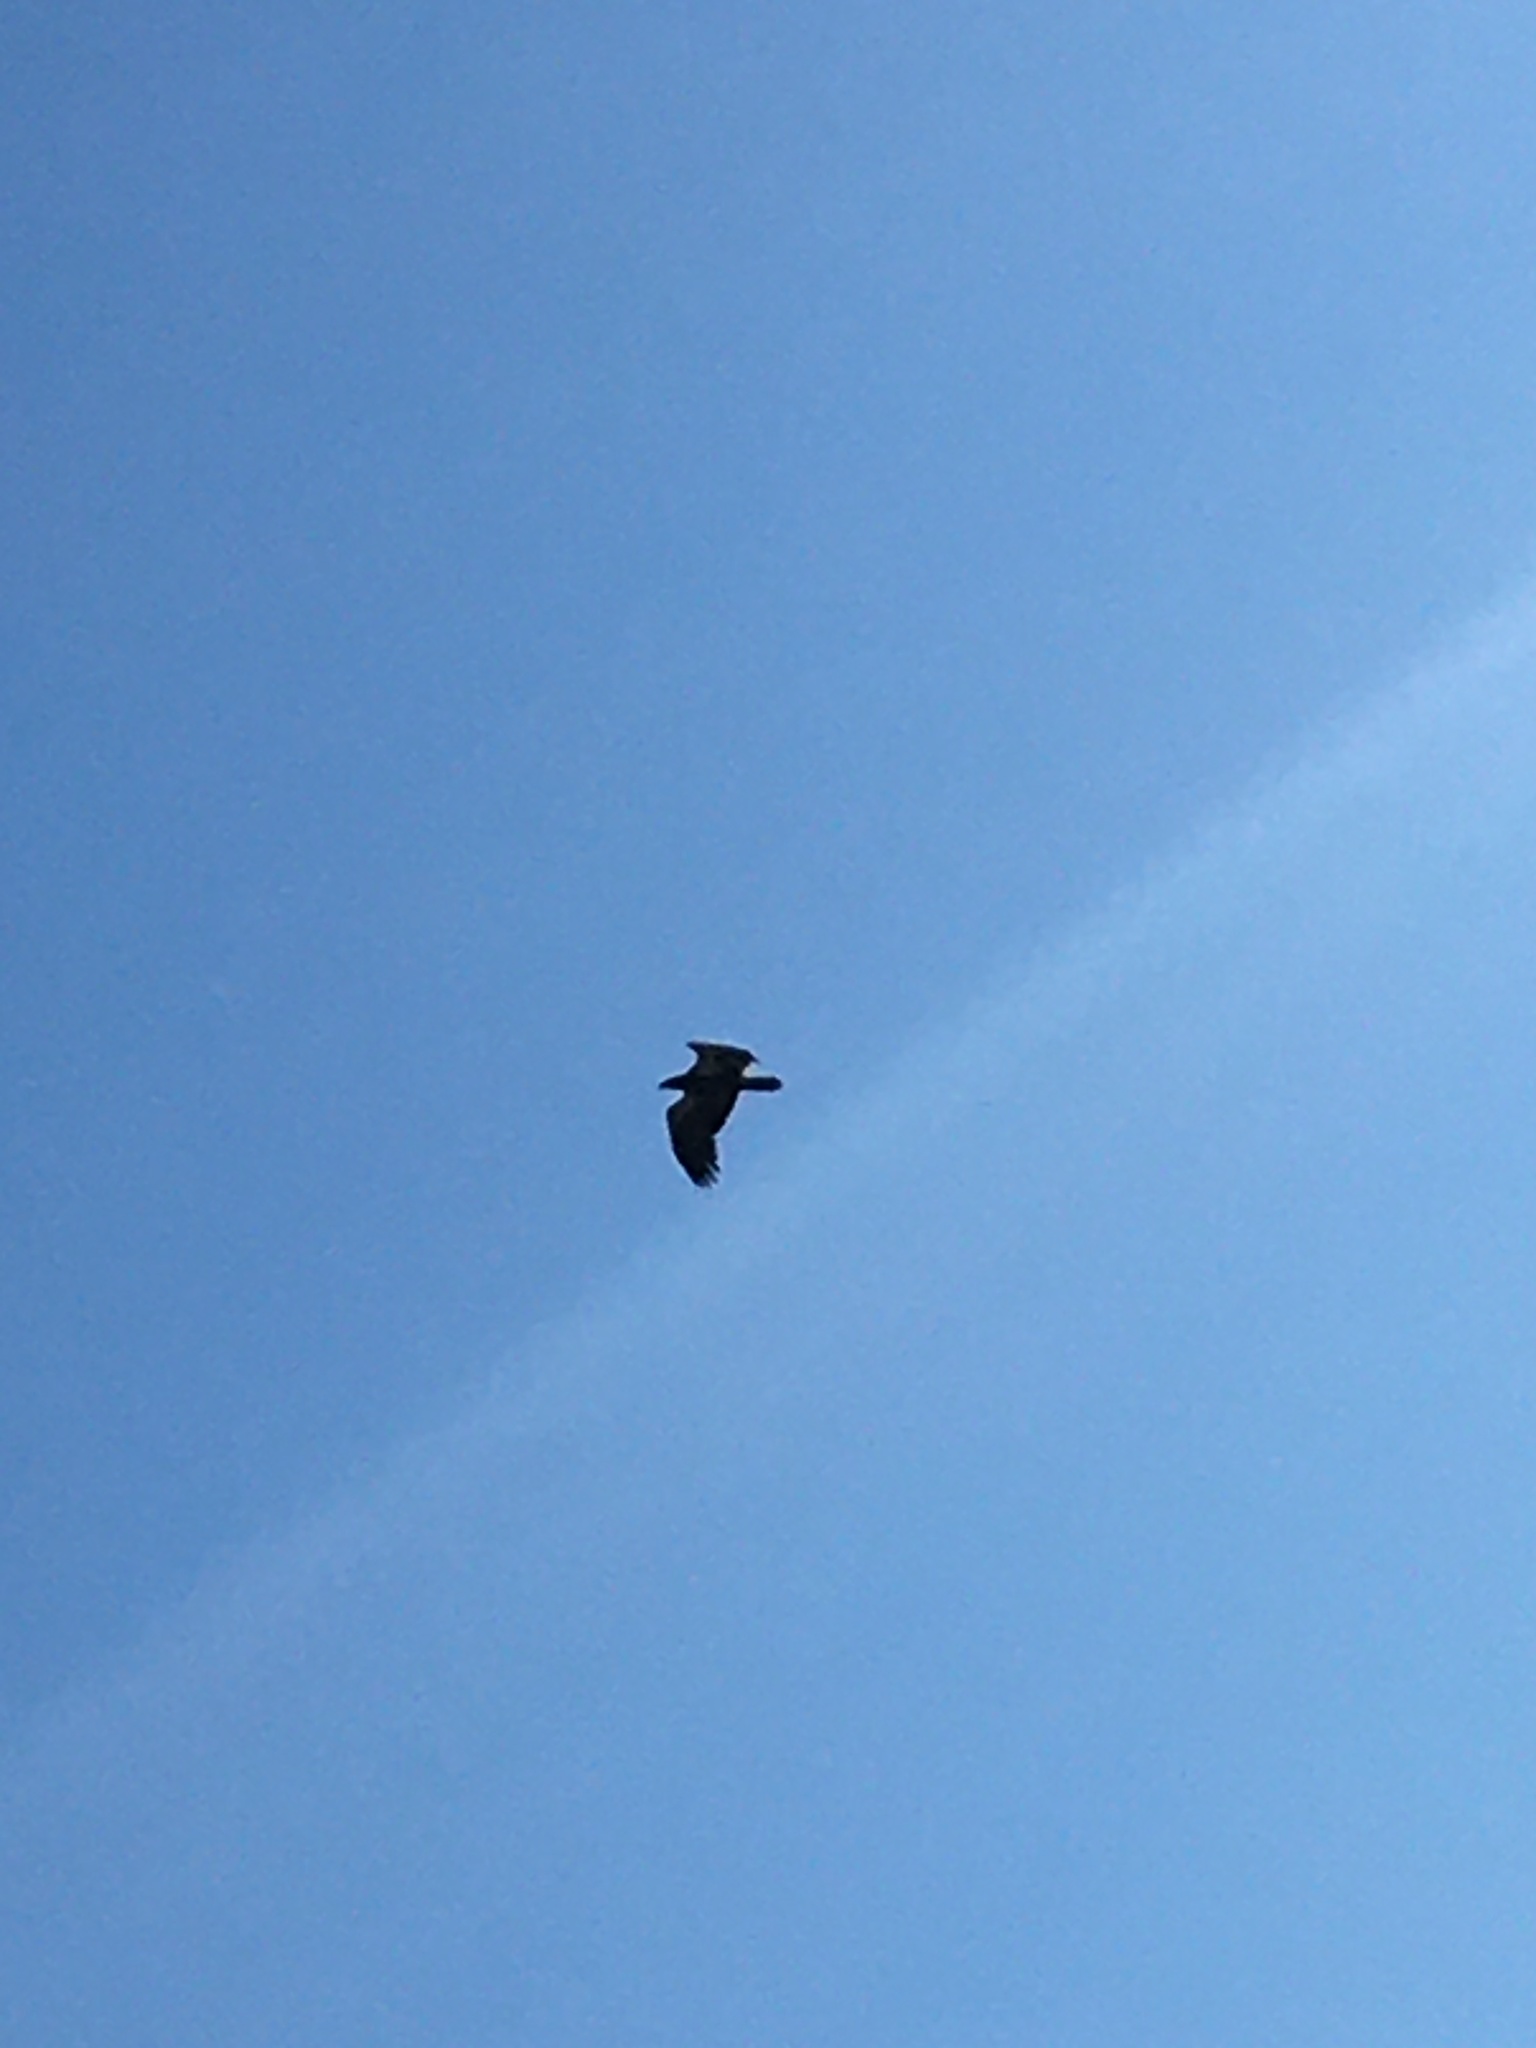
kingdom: Animalia
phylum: Chordata
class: Aves
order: Accipitriformes
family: Accipitridae
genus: Haliaeetus
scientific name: Haliaeetus leucocephalus
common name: Bald eagle
